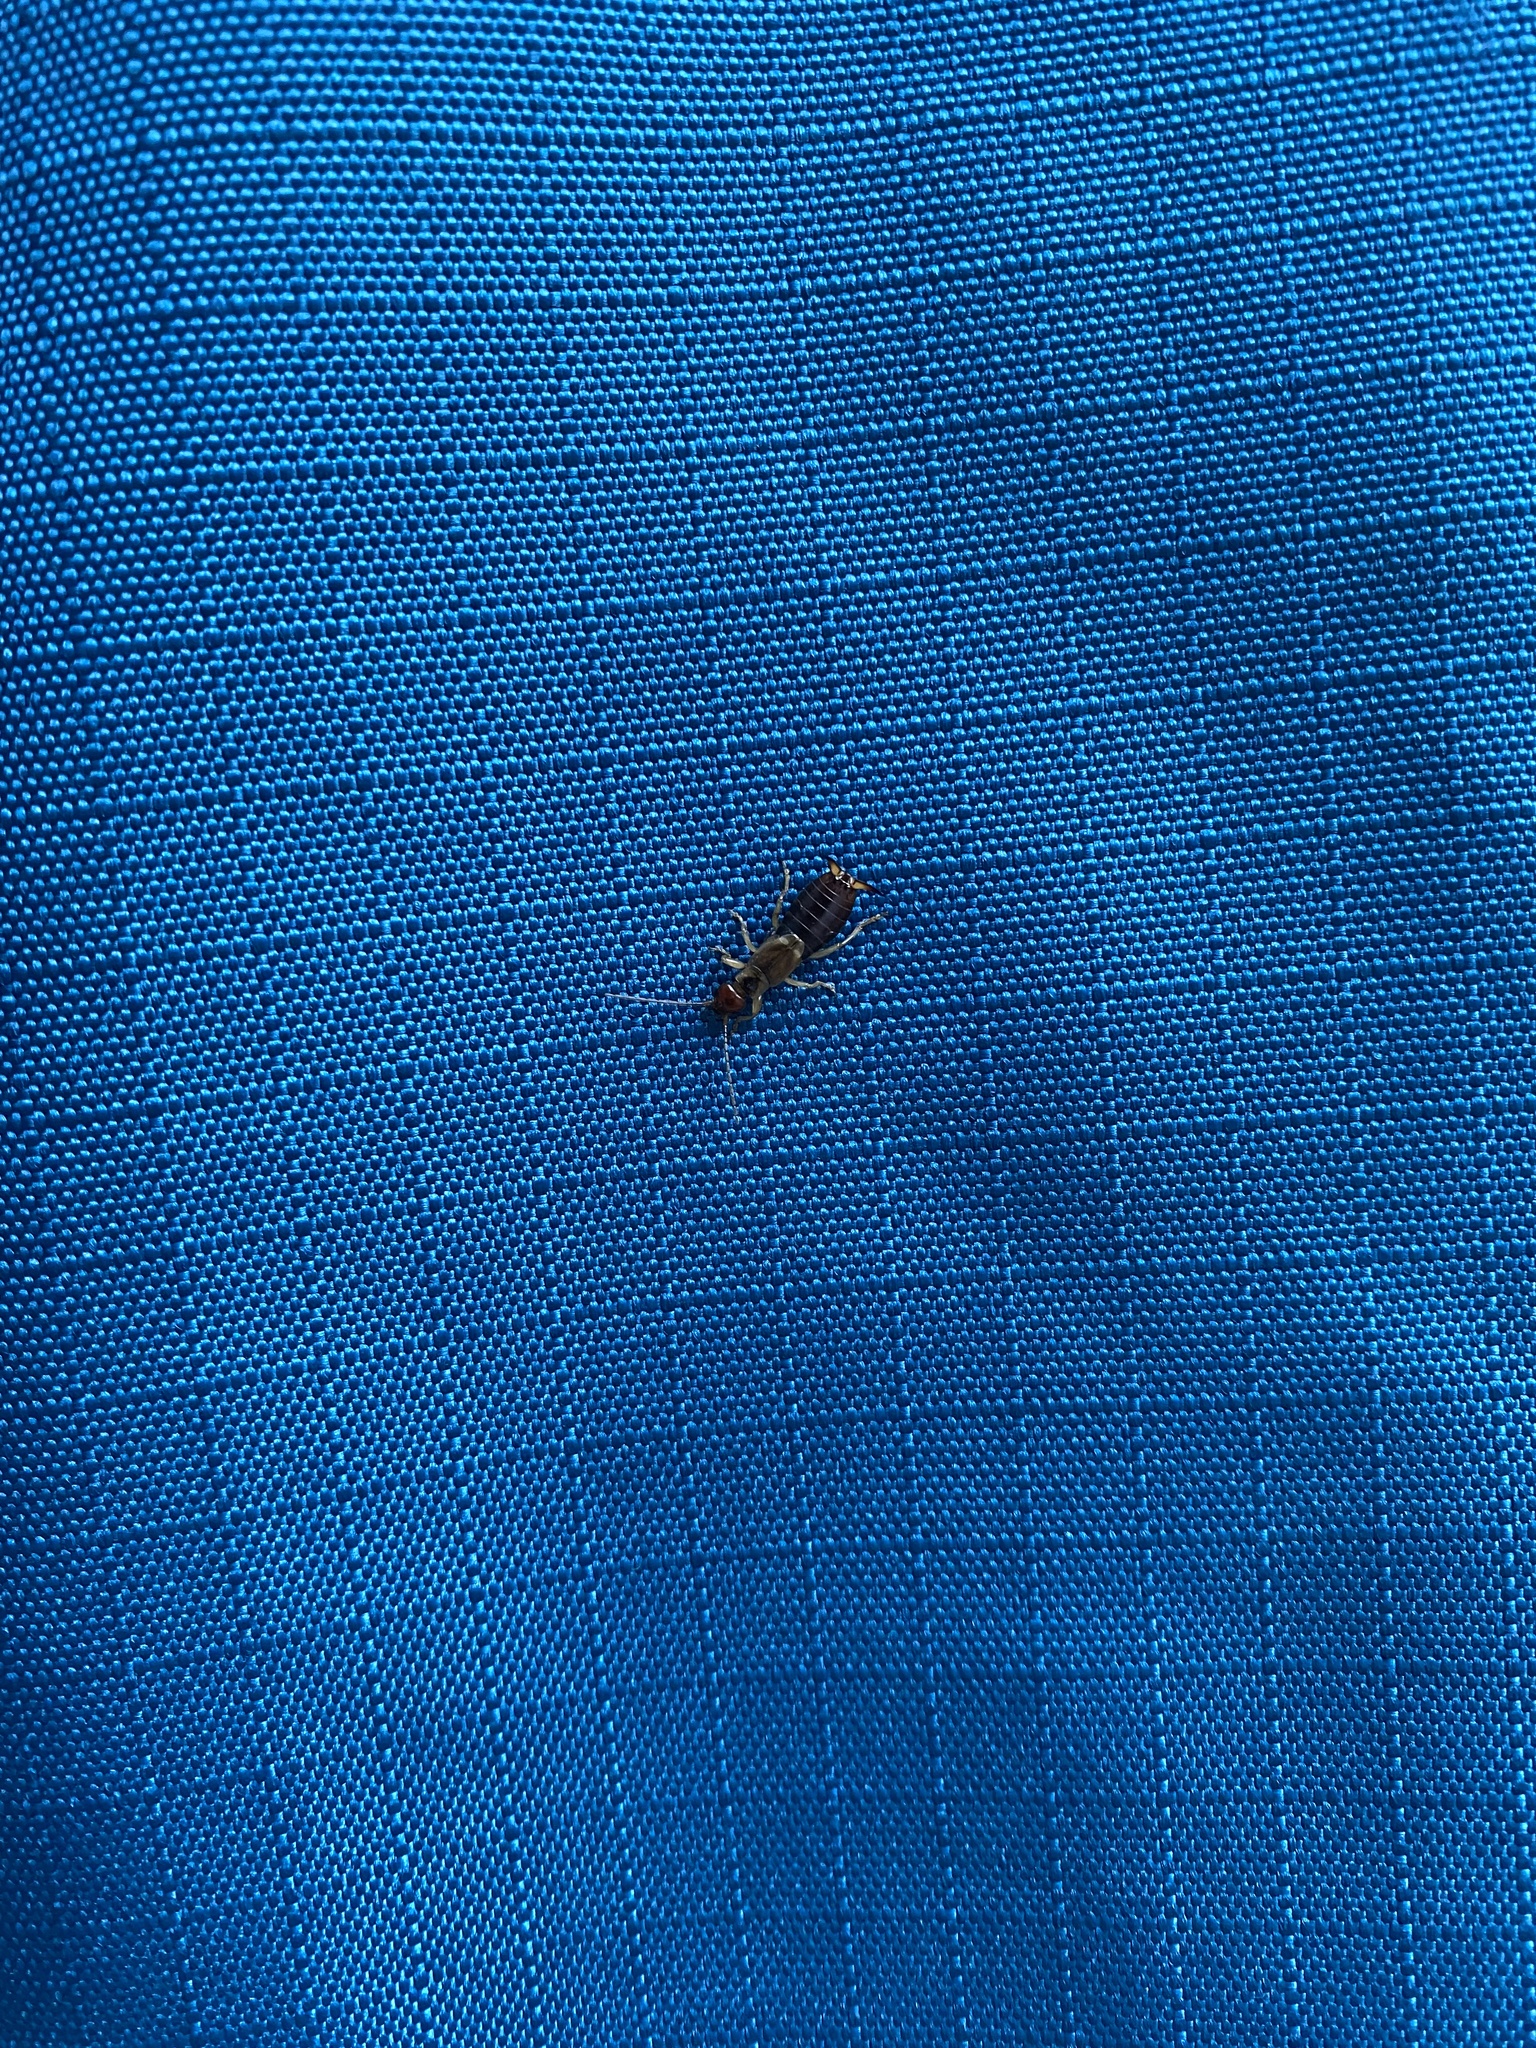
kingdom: Animalia
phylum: Arthropoda
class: Insecta
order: Dermaptera
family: Forficulidae
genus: Forficula
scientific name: Forficula
